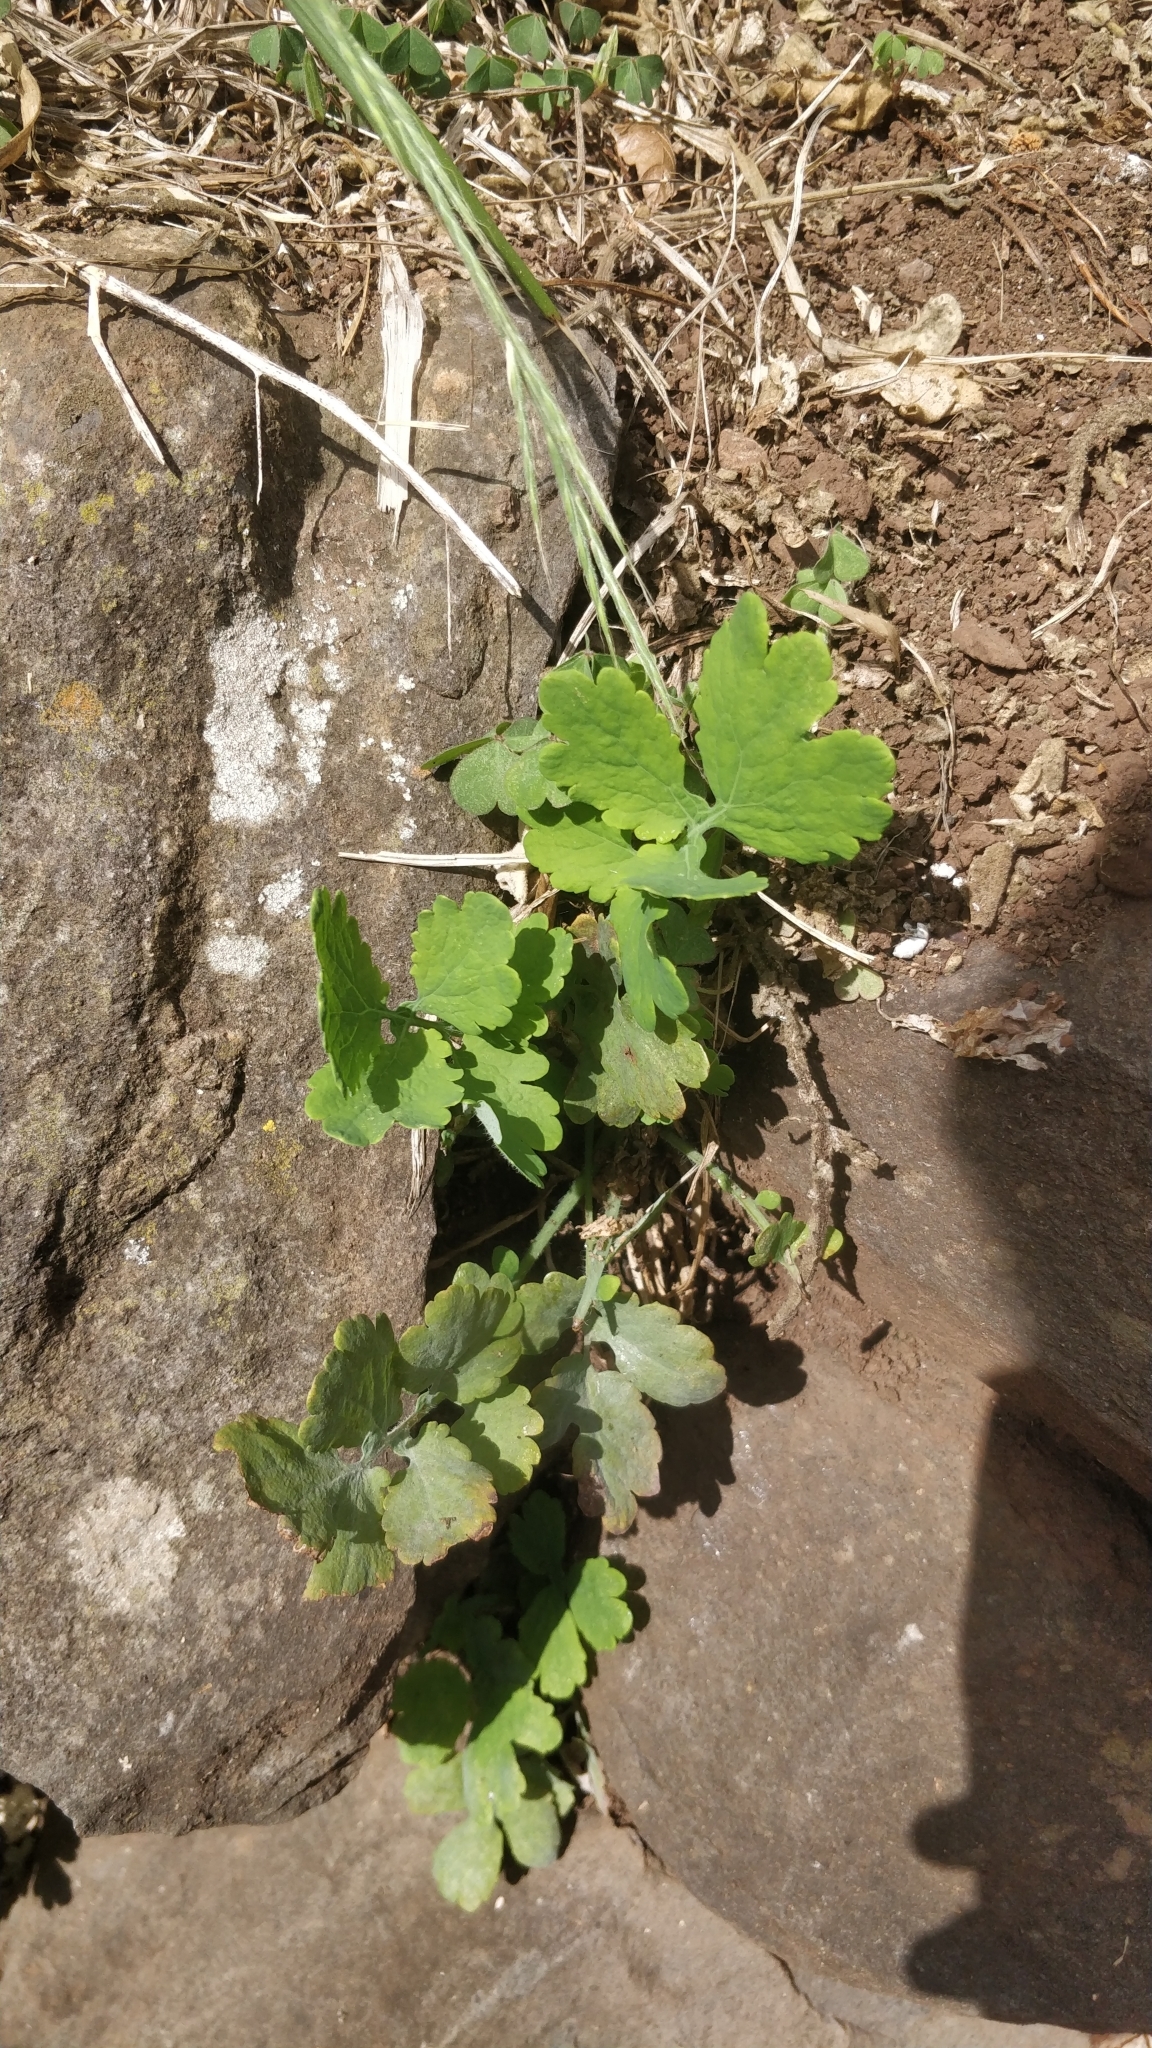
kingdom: Plantae
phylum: Tracheophyta
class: Magnoliopsida
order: Ranunculales
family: Papaveraceae
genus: Chelidonium
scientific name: Chelidonium majus
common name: Greater celandine
